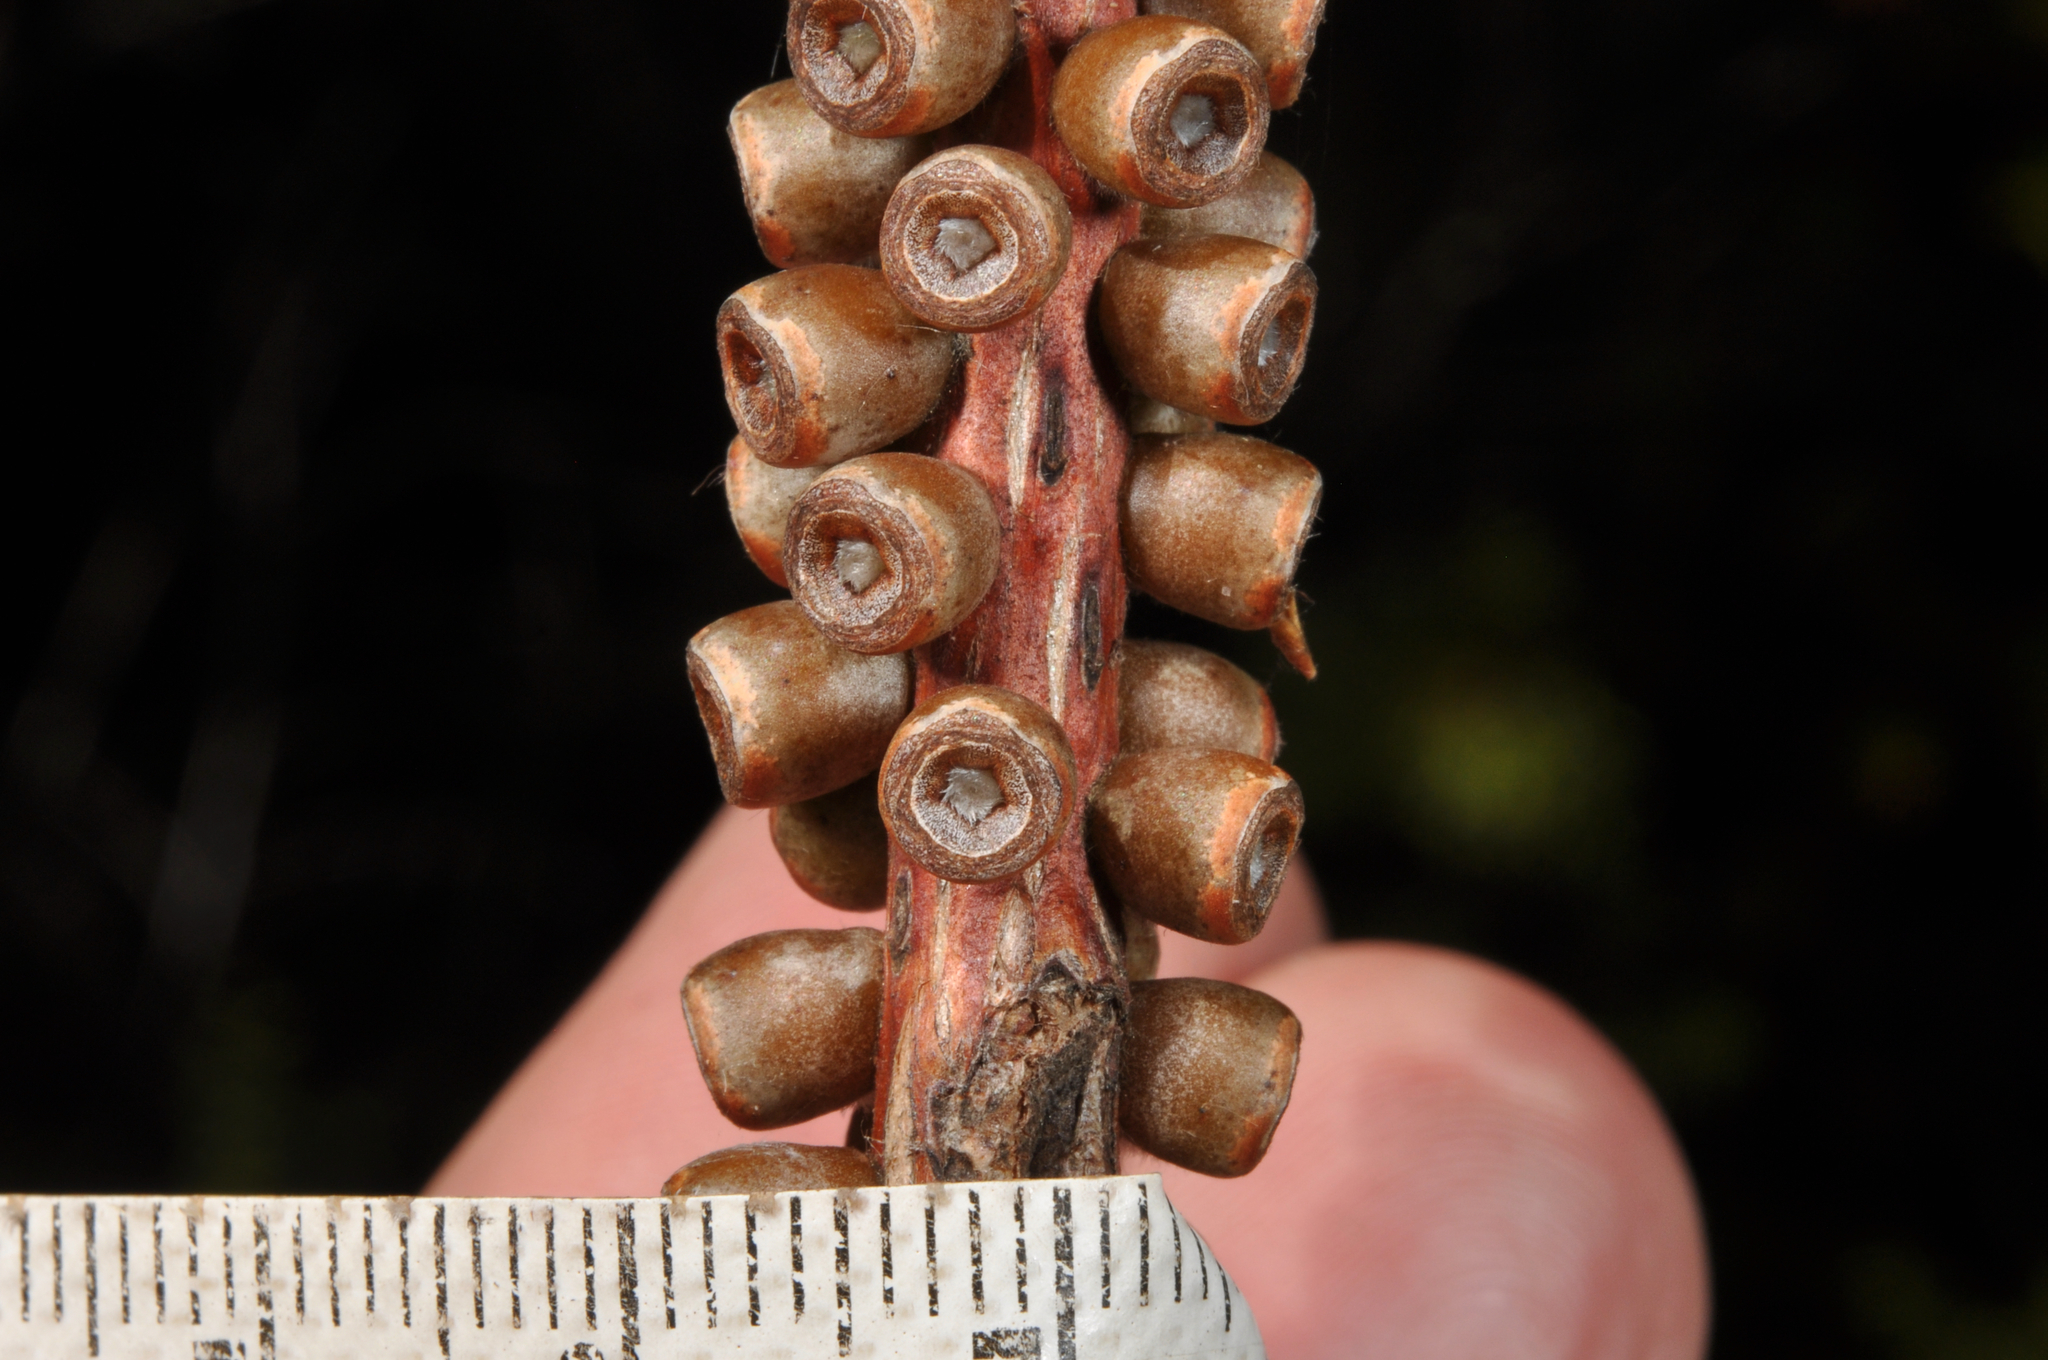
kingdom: Plantae
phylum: Tracheophyta
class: Magnoliopsida
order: Myrtales
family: Myrtaceae
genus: Callistemon
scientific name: Callistemon linearis
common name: Narrow-leaf bottlebrush
